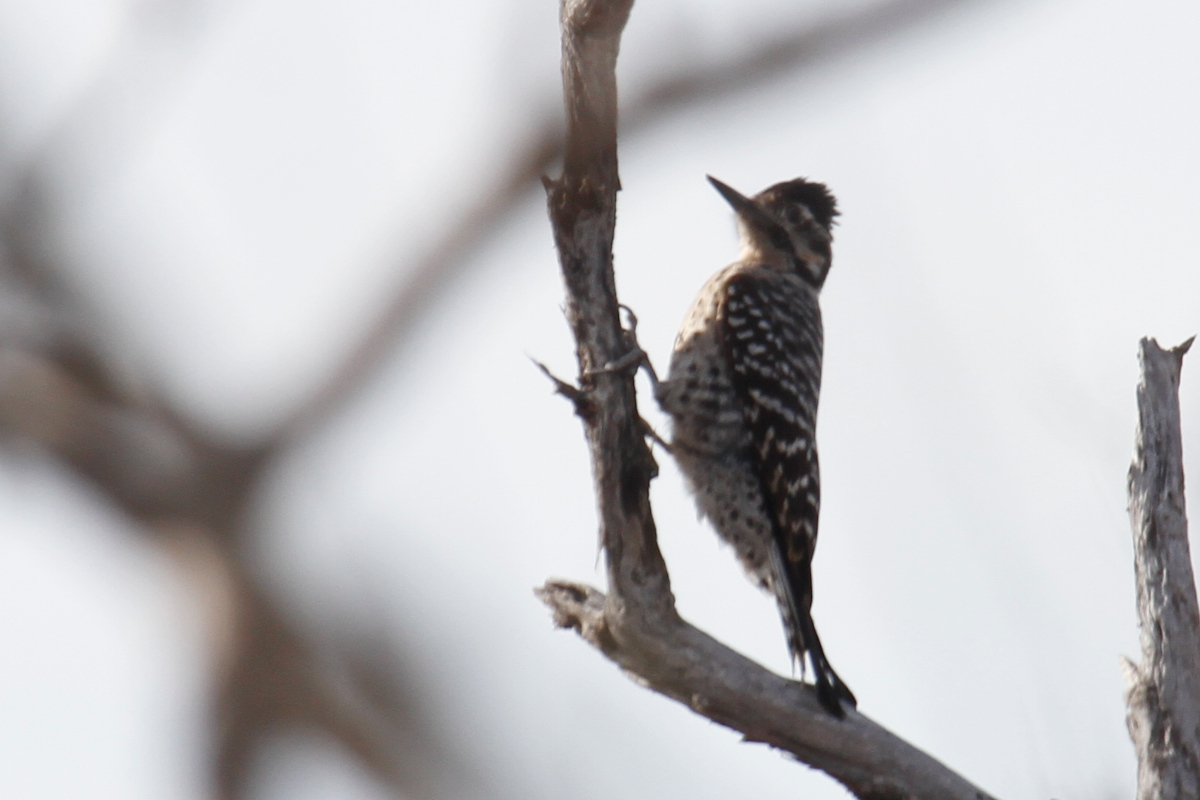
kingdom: Animalia
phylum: Chordata
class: Aves
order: Piciformes
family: Picidae
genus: Dryobates
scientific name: Dryobates scalaris
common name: Ladder-backed woodpecker
